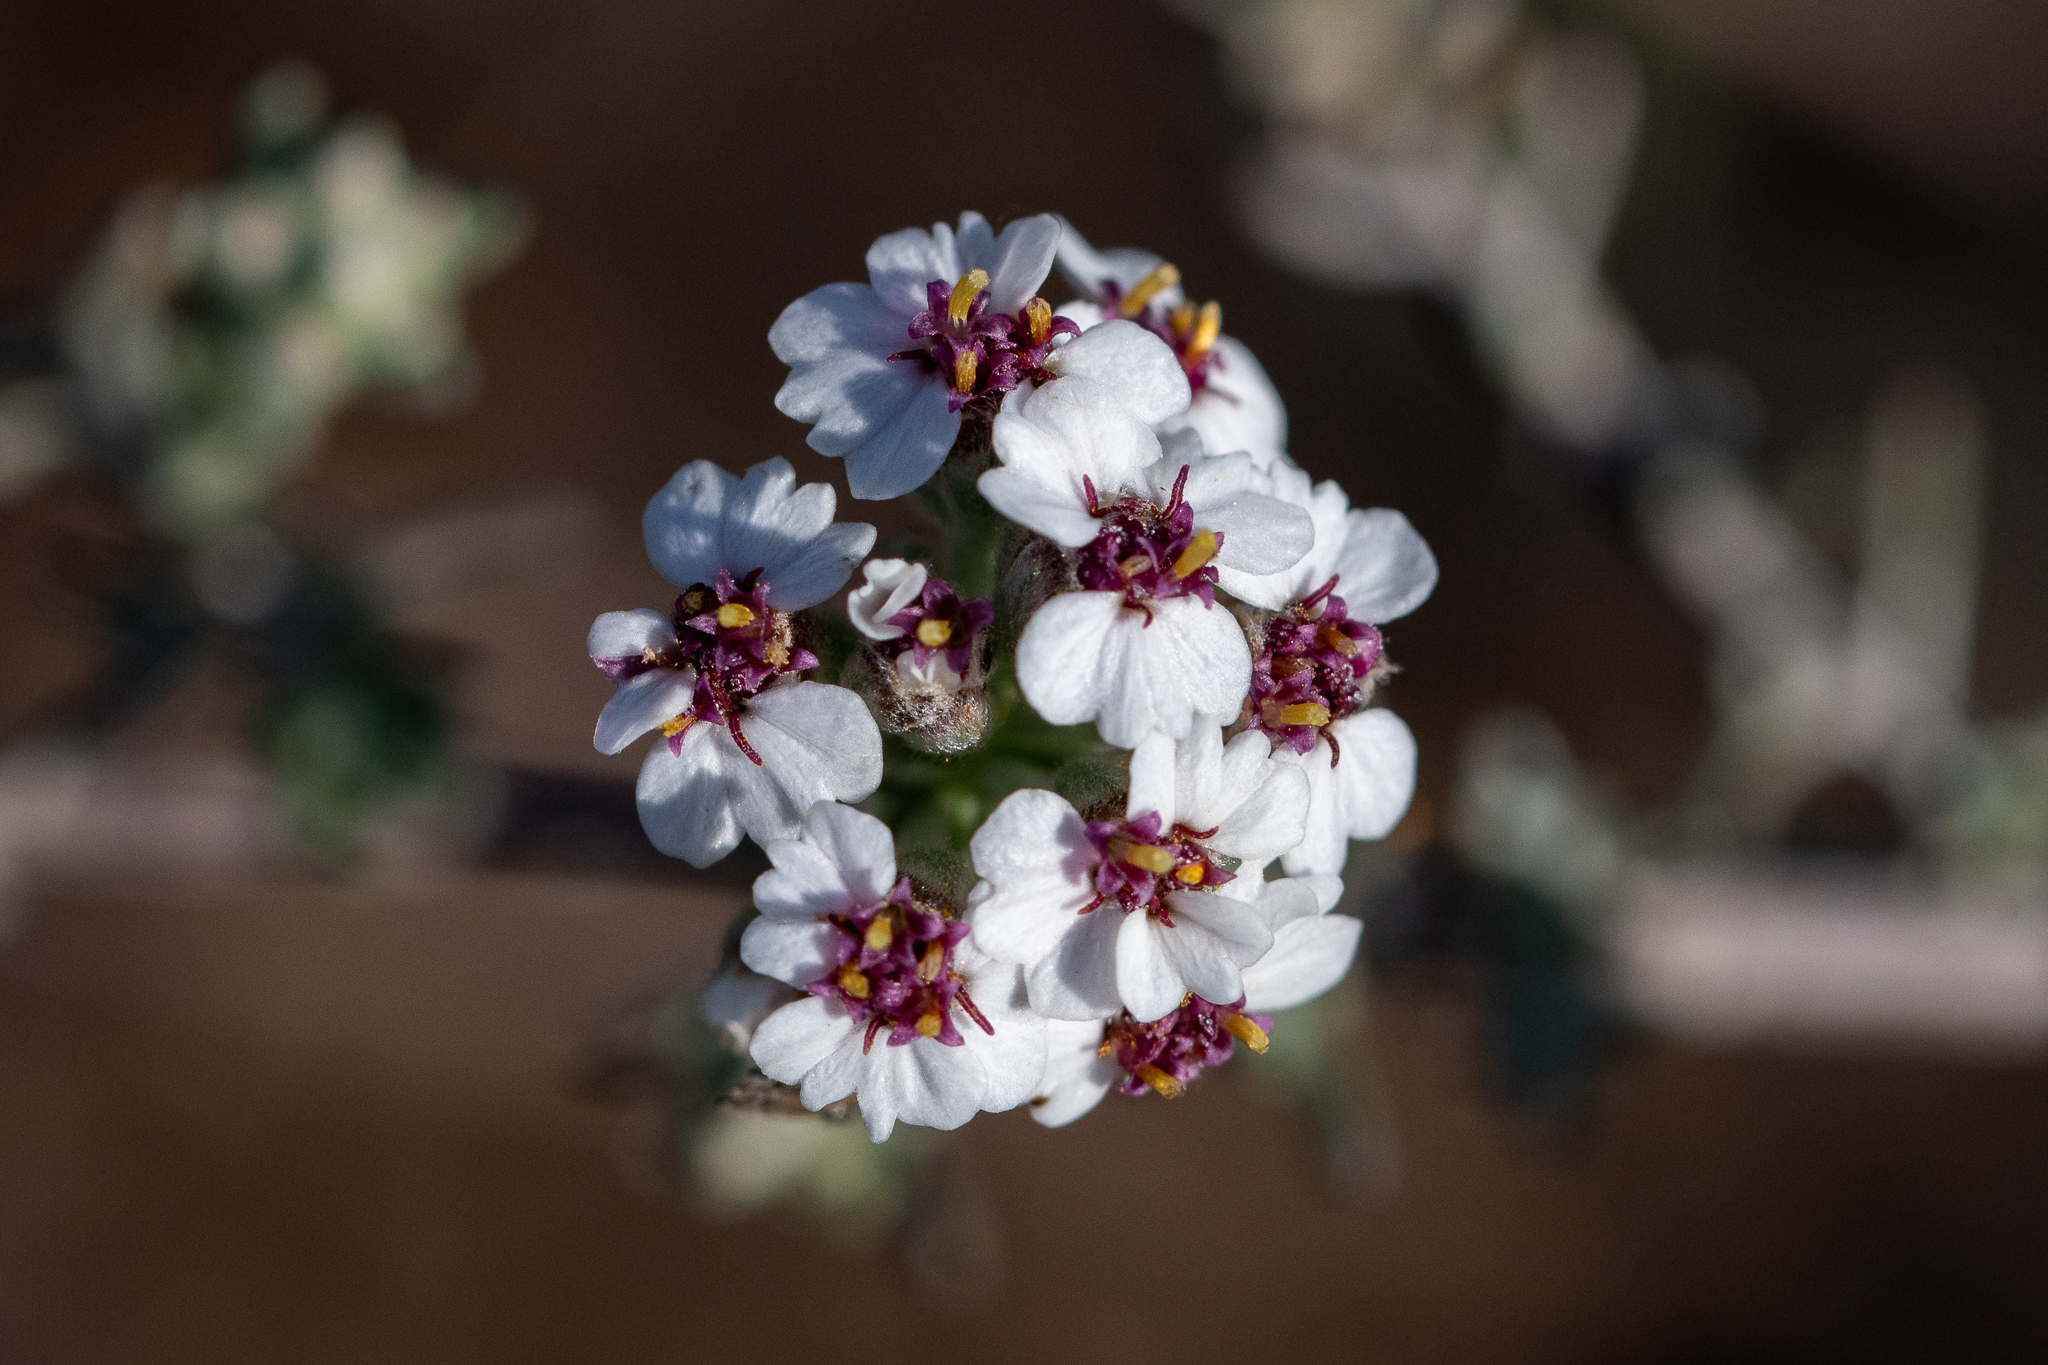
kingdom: Plantae
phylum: Tracheophyta
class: Magnoliopsida
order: Asterales
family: Asteraceae
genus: Eriocephalus
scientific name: Eriocephalus africanus
